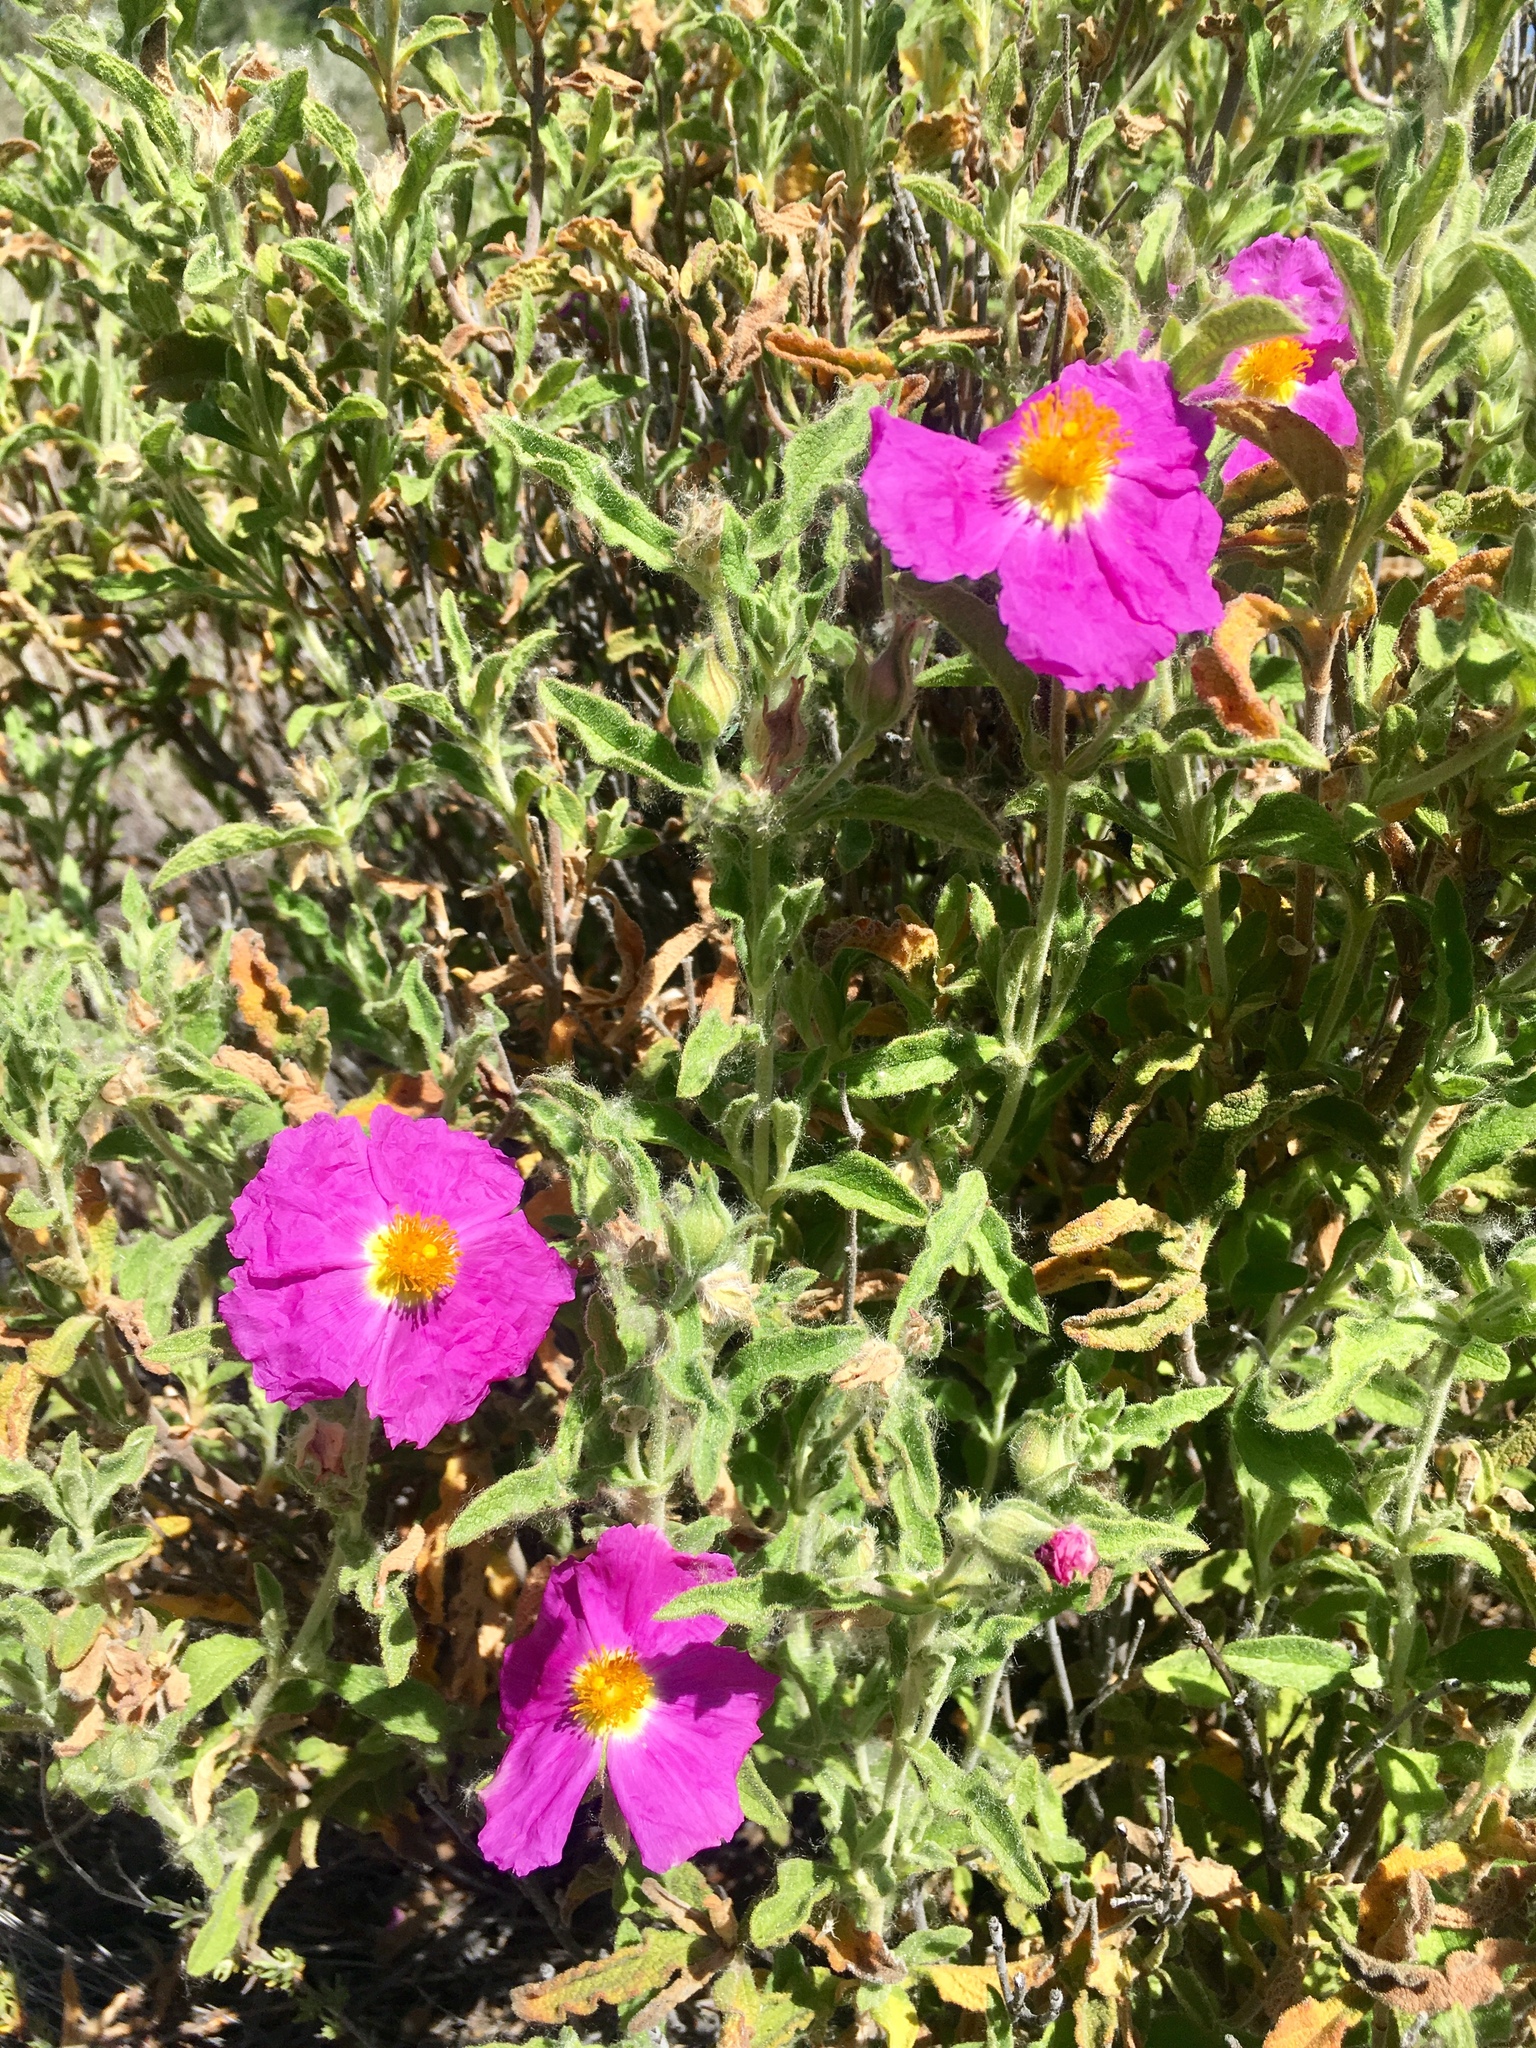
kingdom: Plantae
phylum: Tracheophyta
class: Magnoliopsida
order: Malvales
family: Cistaceae
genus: Cistus
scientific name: Cistus creticus
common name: Cretan rockrose
